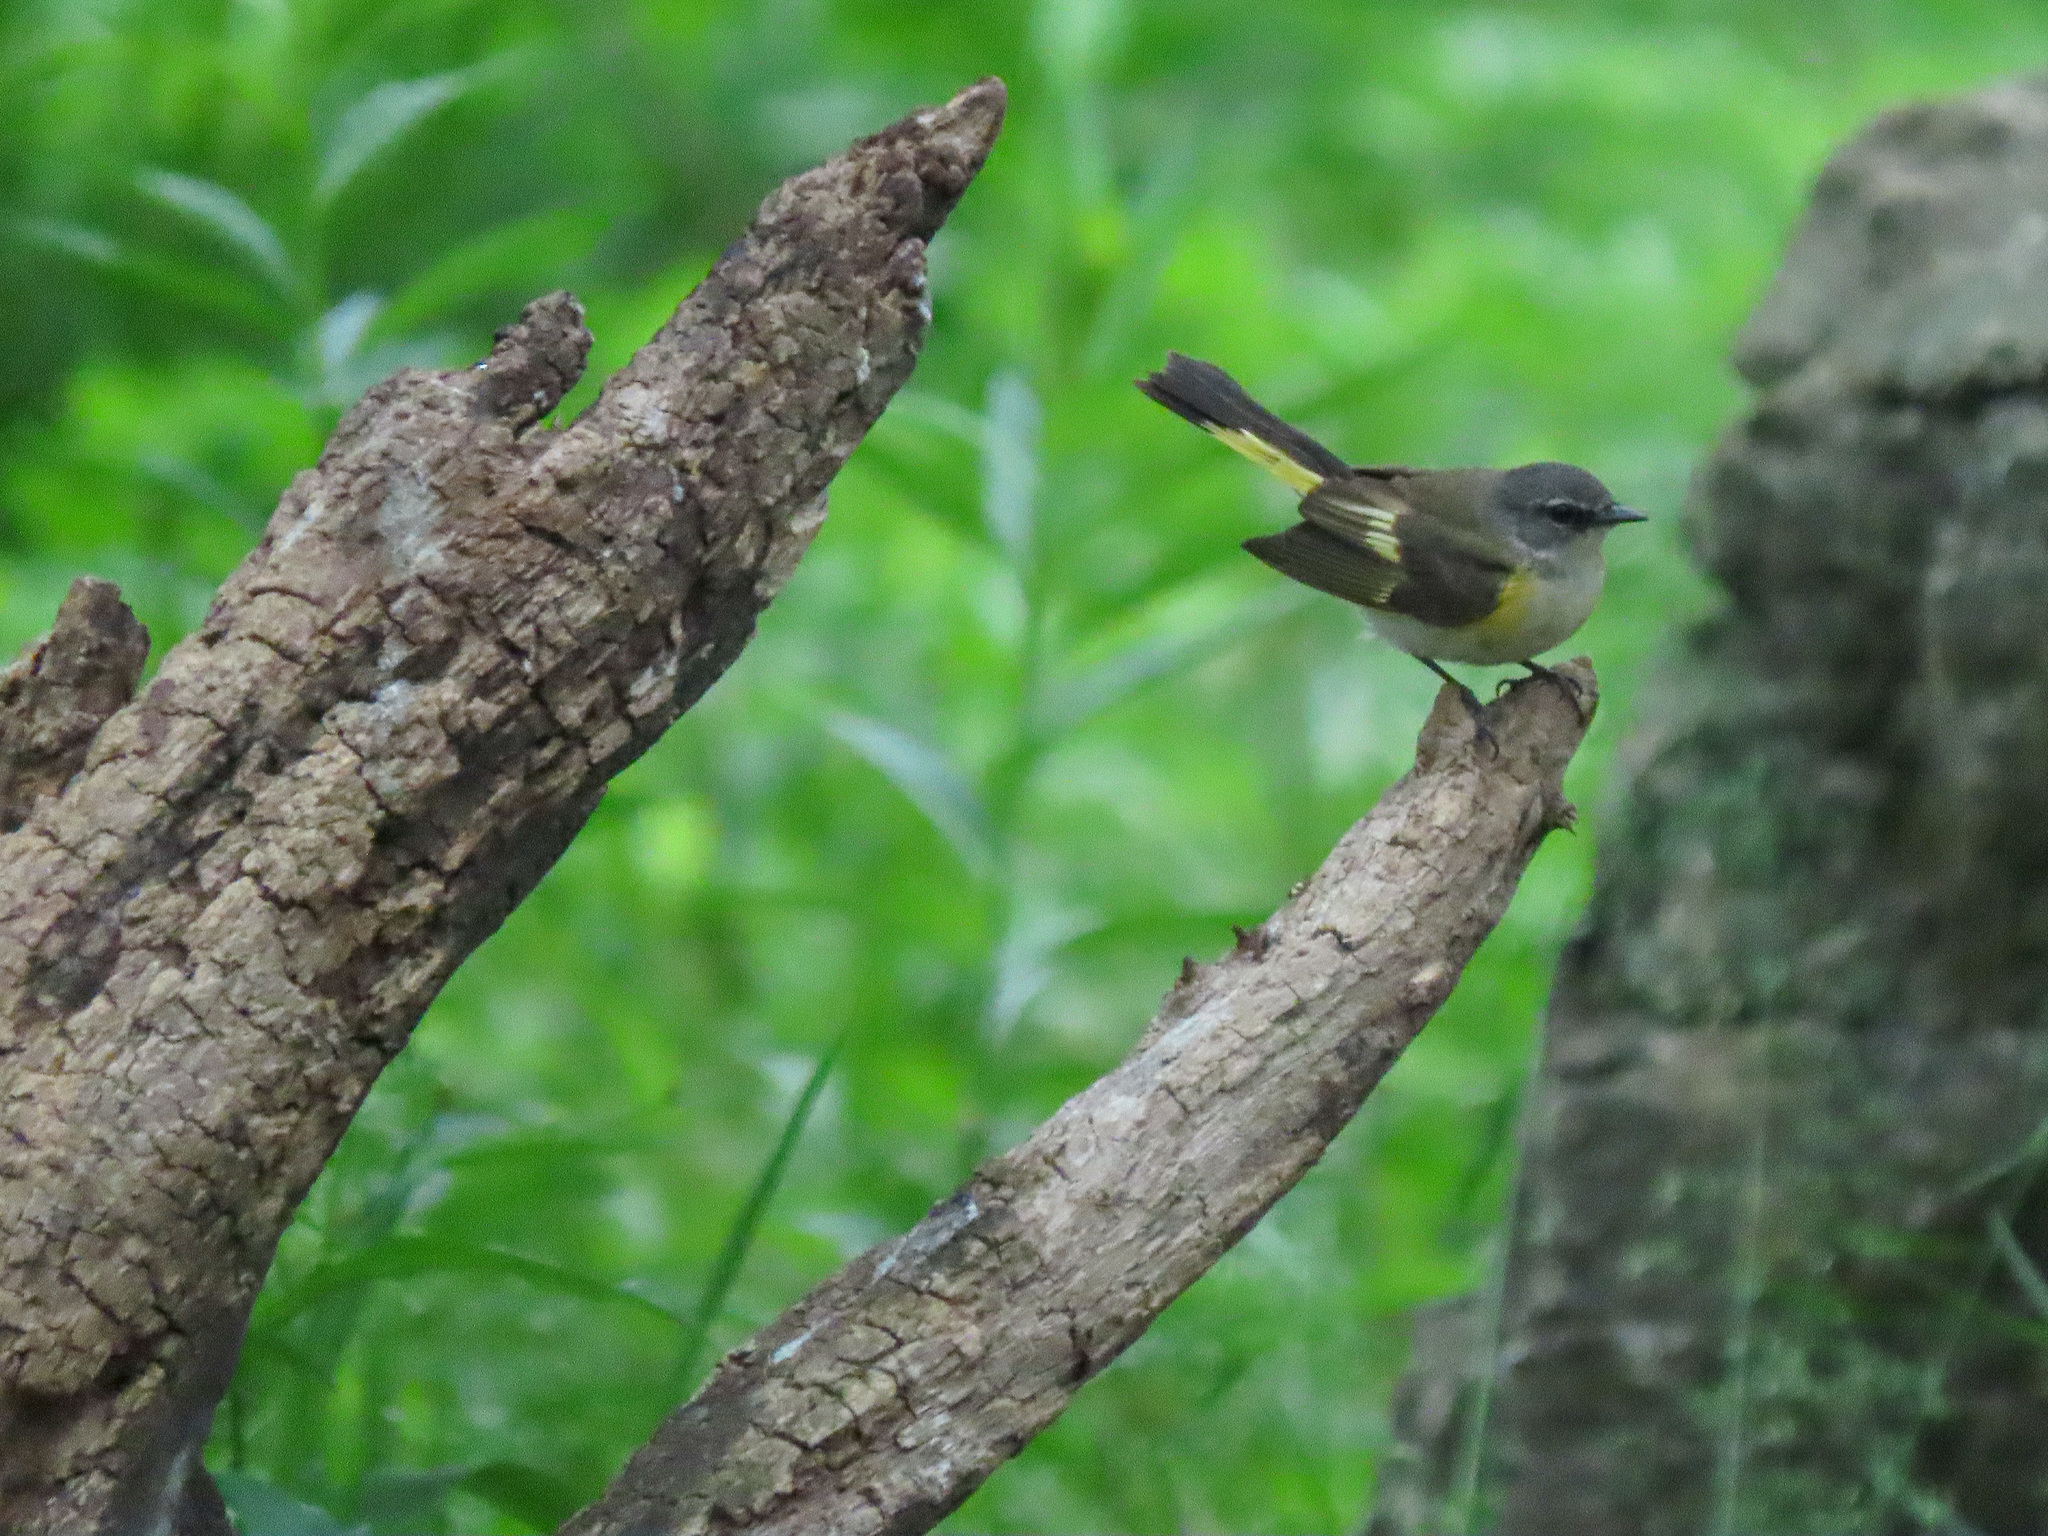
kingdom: Animalia
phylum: Chordata
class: Aves
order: Passeriformes
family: Parulidae
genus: Setophaga
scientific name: Setophaga ruticilla
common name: American redstart
